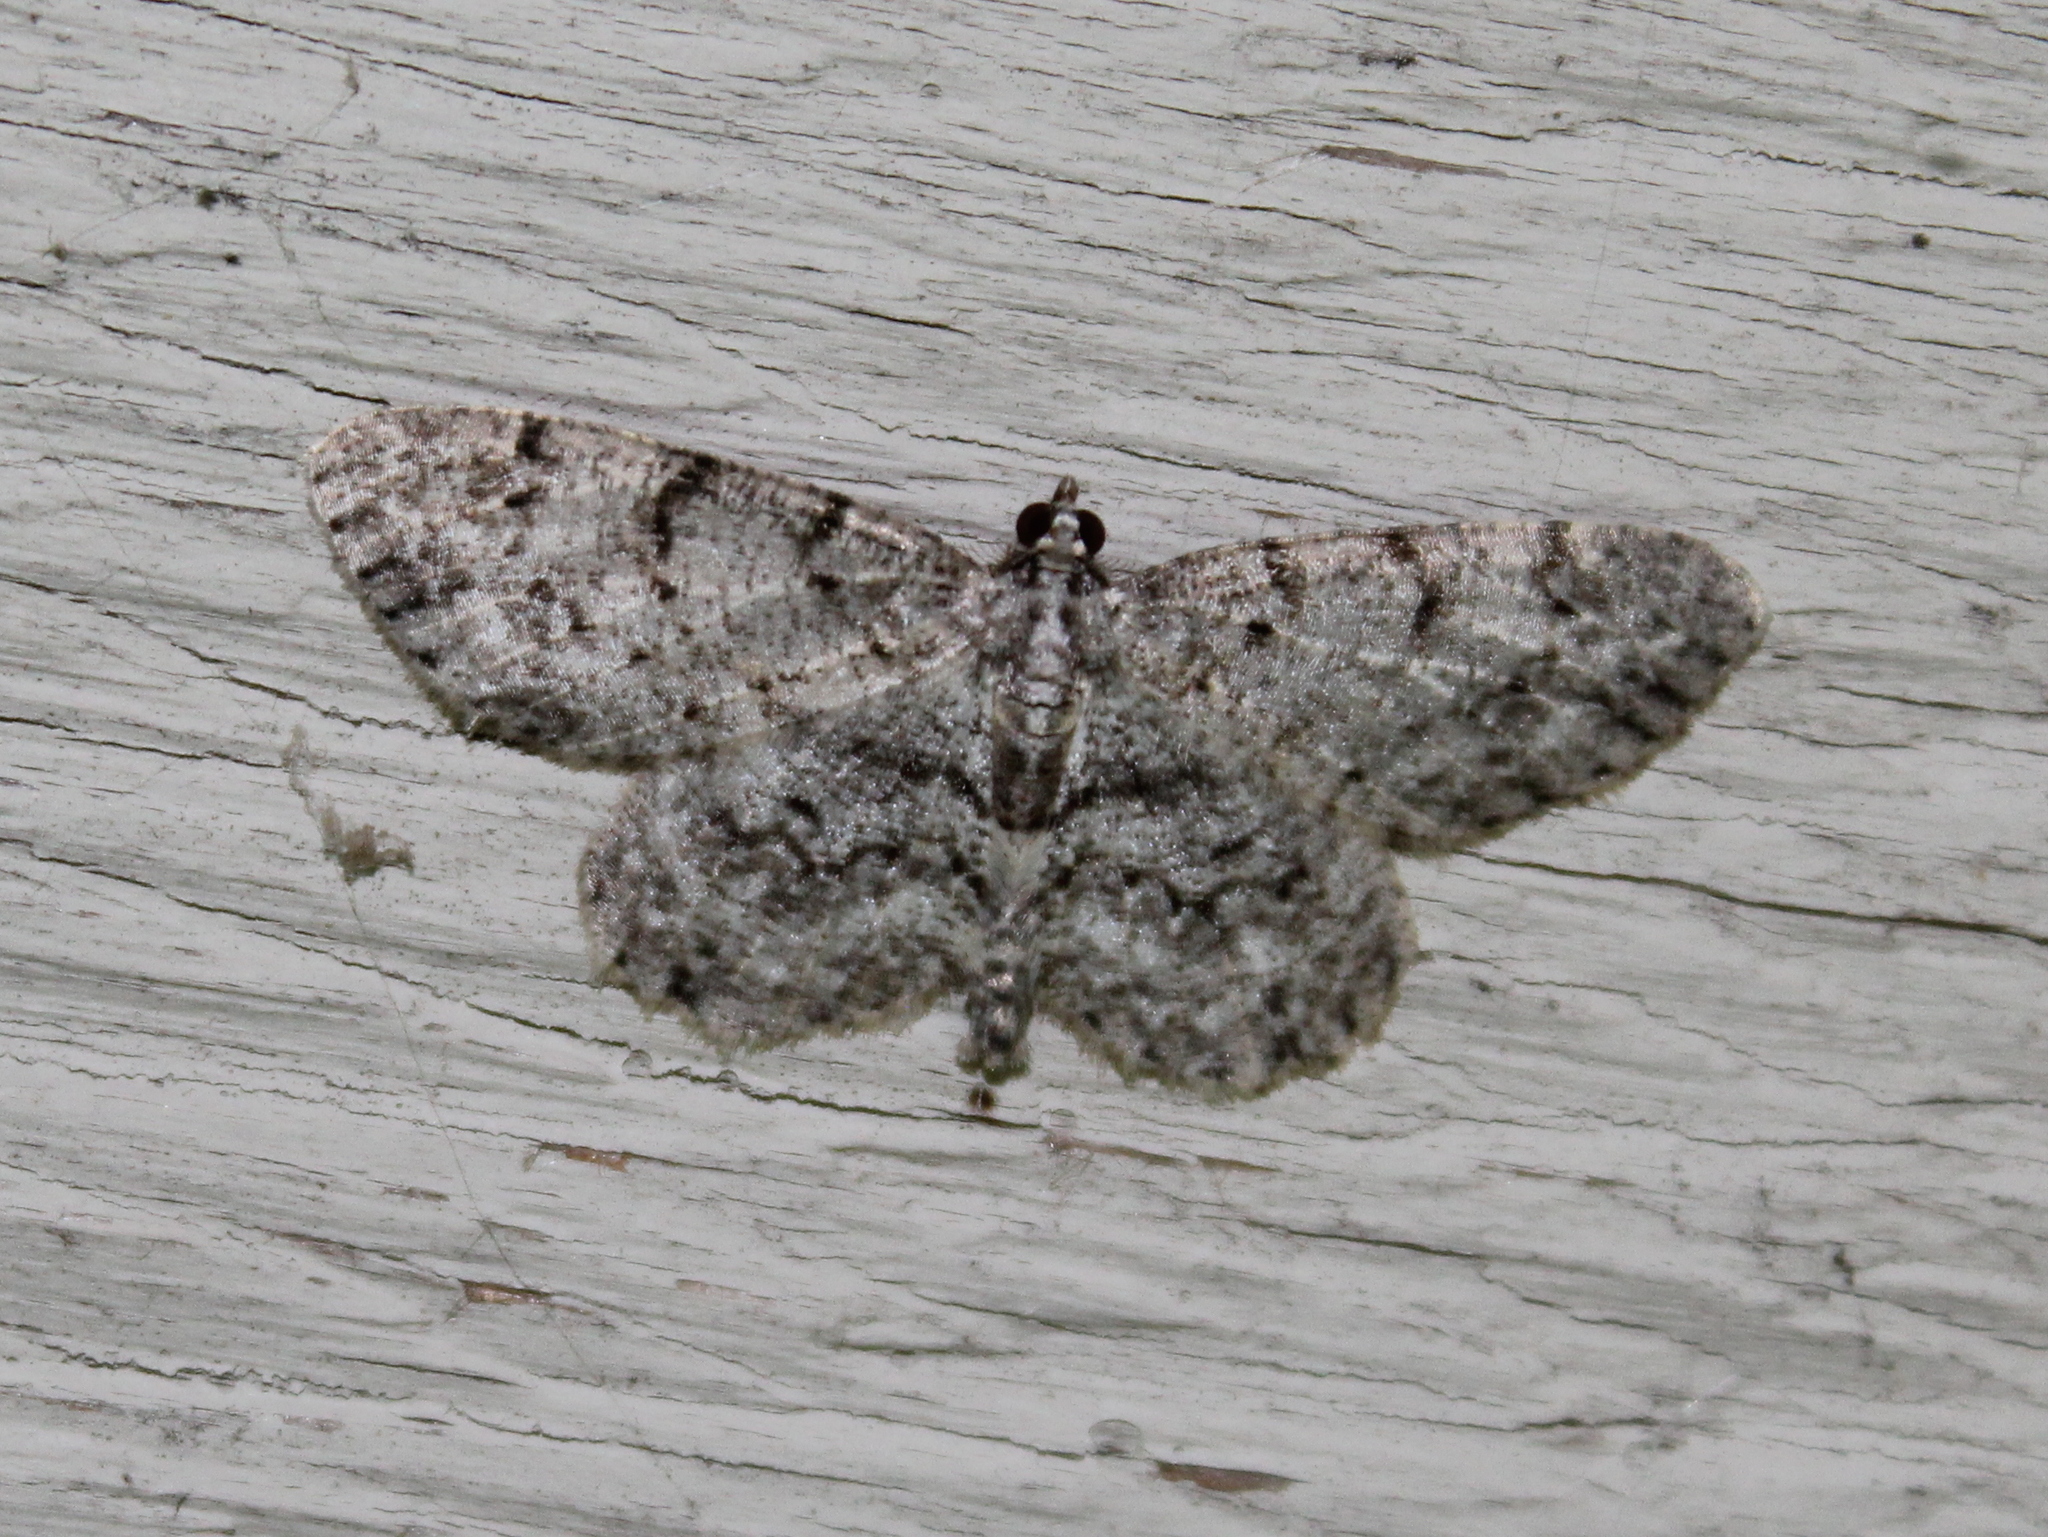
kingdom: Animalia
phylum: Arthropoda
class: Insecta
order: Lepidoptera
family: Geometridae
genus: Protoboarmia
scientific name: Protoboarmia porcelaria
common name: Porcelain gray
